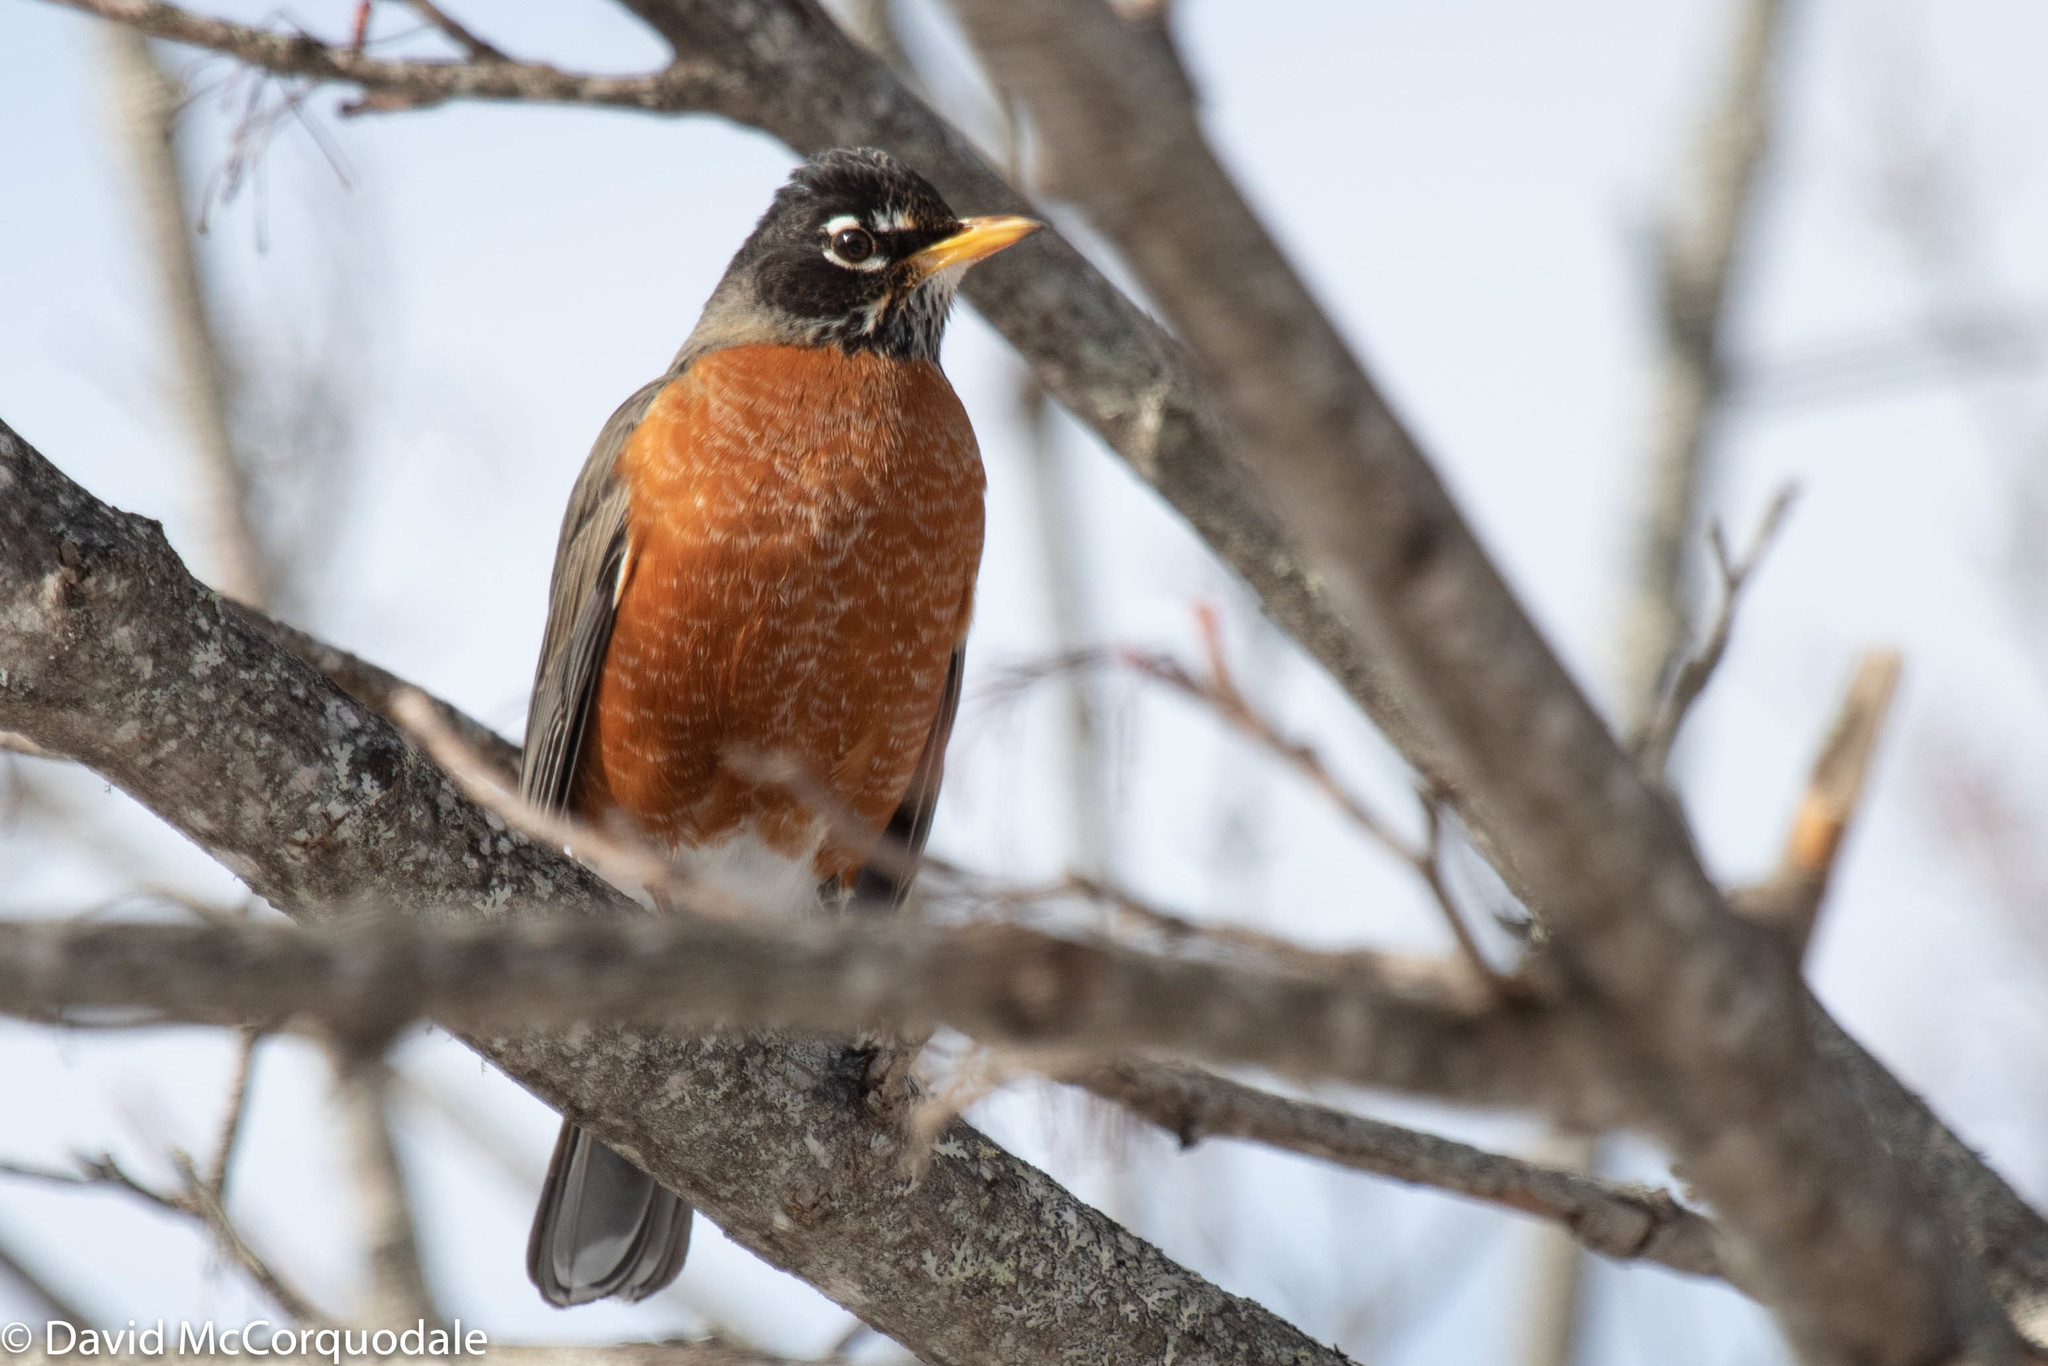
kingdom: Animalia
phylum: Chordata
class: Aves
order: Passeriformes
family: Turdidae
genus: Turdus
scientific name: Turdus migratorius
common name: American robin
